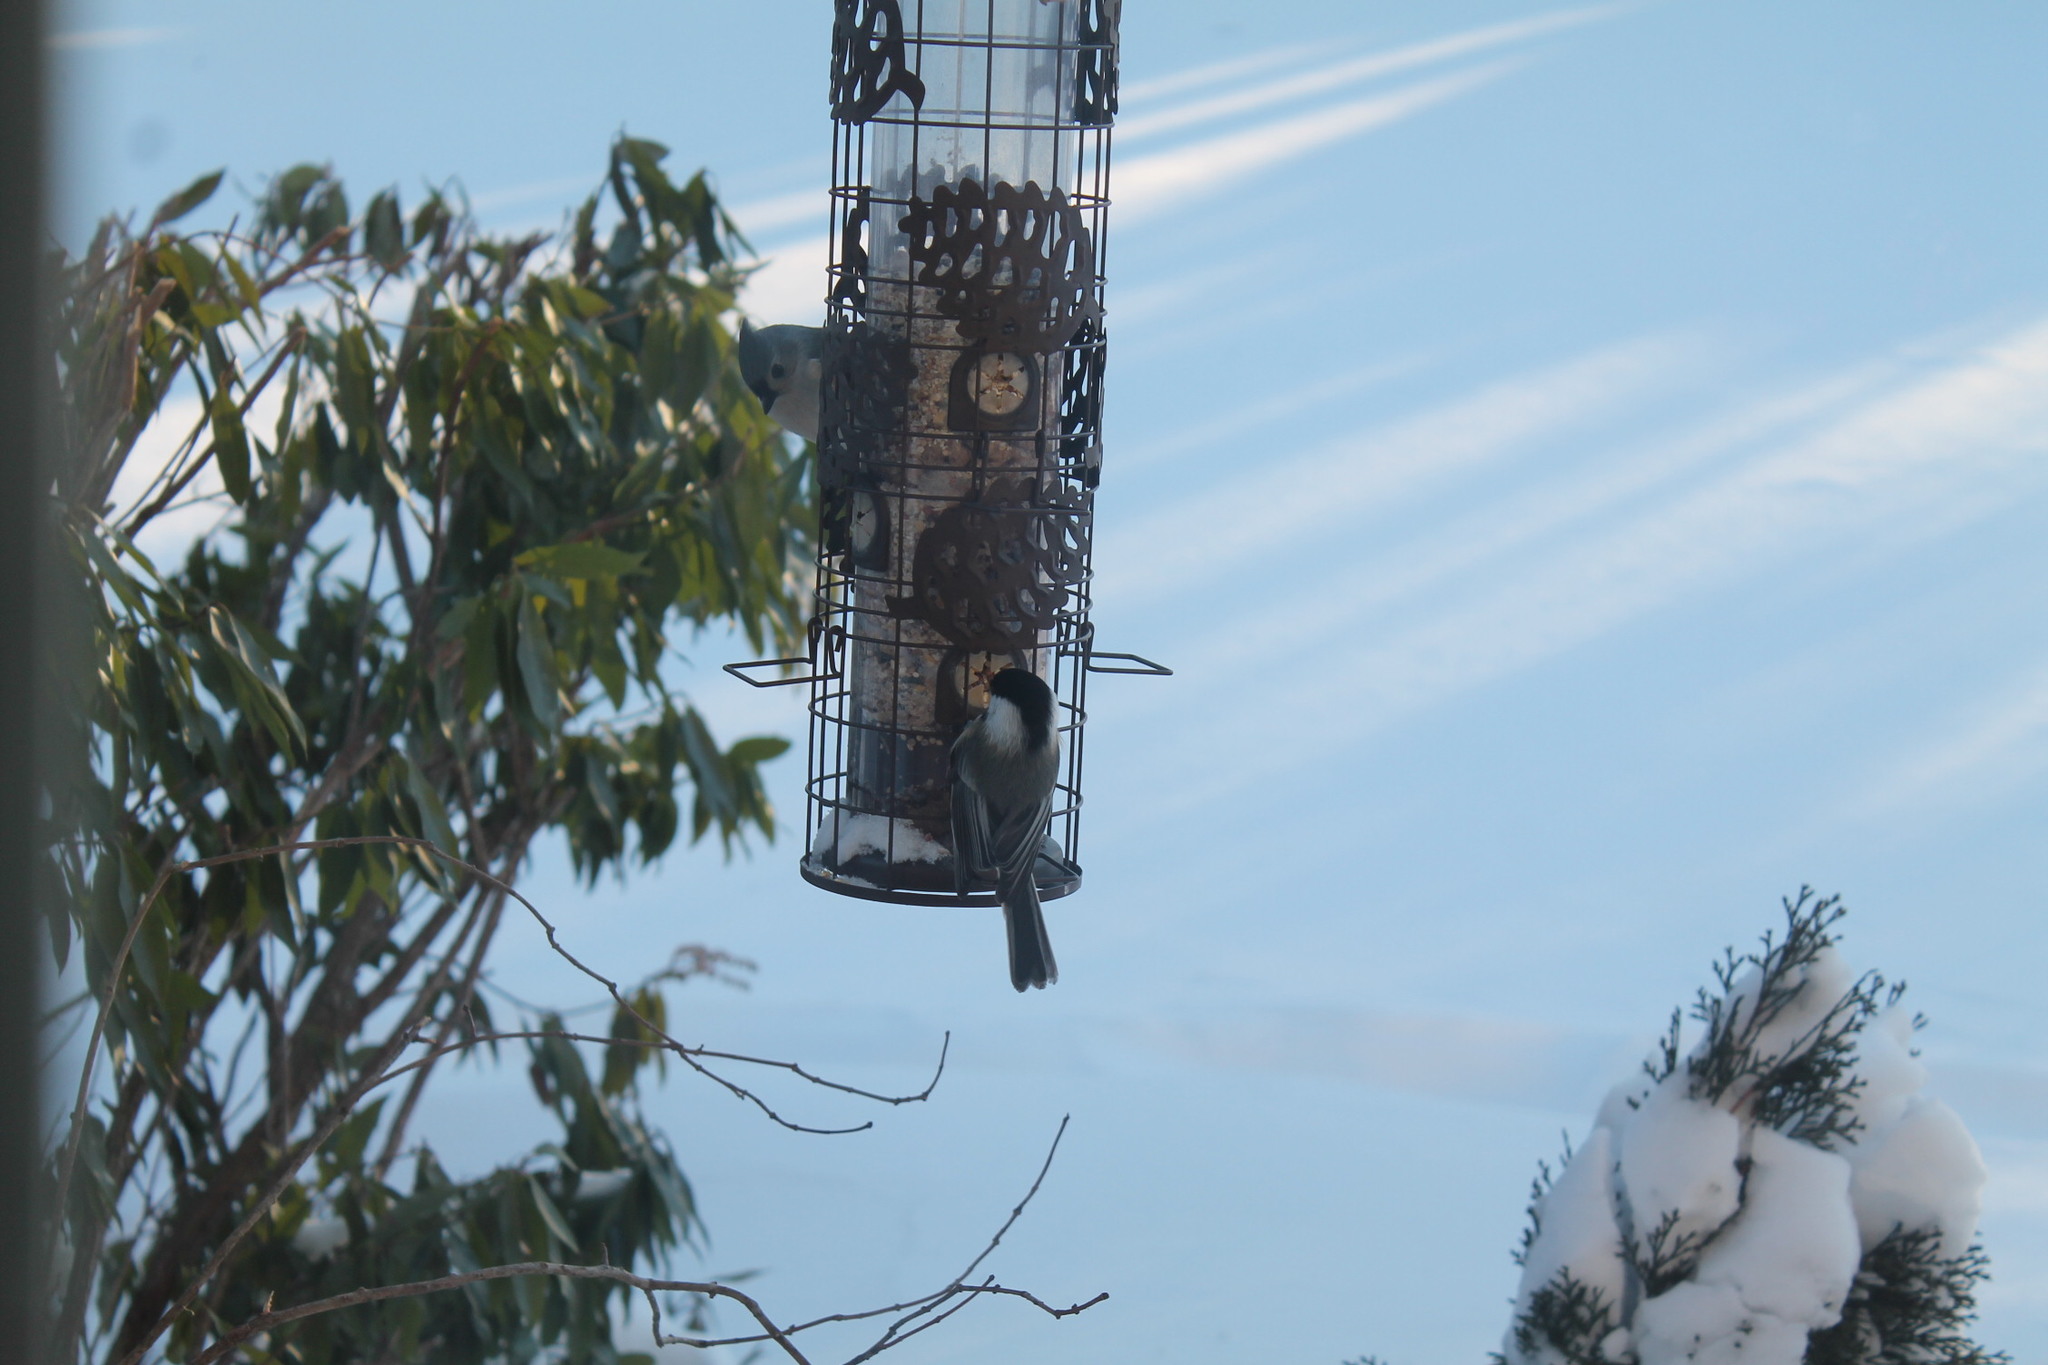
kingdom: Animalia
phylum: Chordata
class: Aves
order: Passeriformes
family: Paridae
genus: Poecile
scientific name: Poecile atricapillus
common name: Black-capped chickadee
